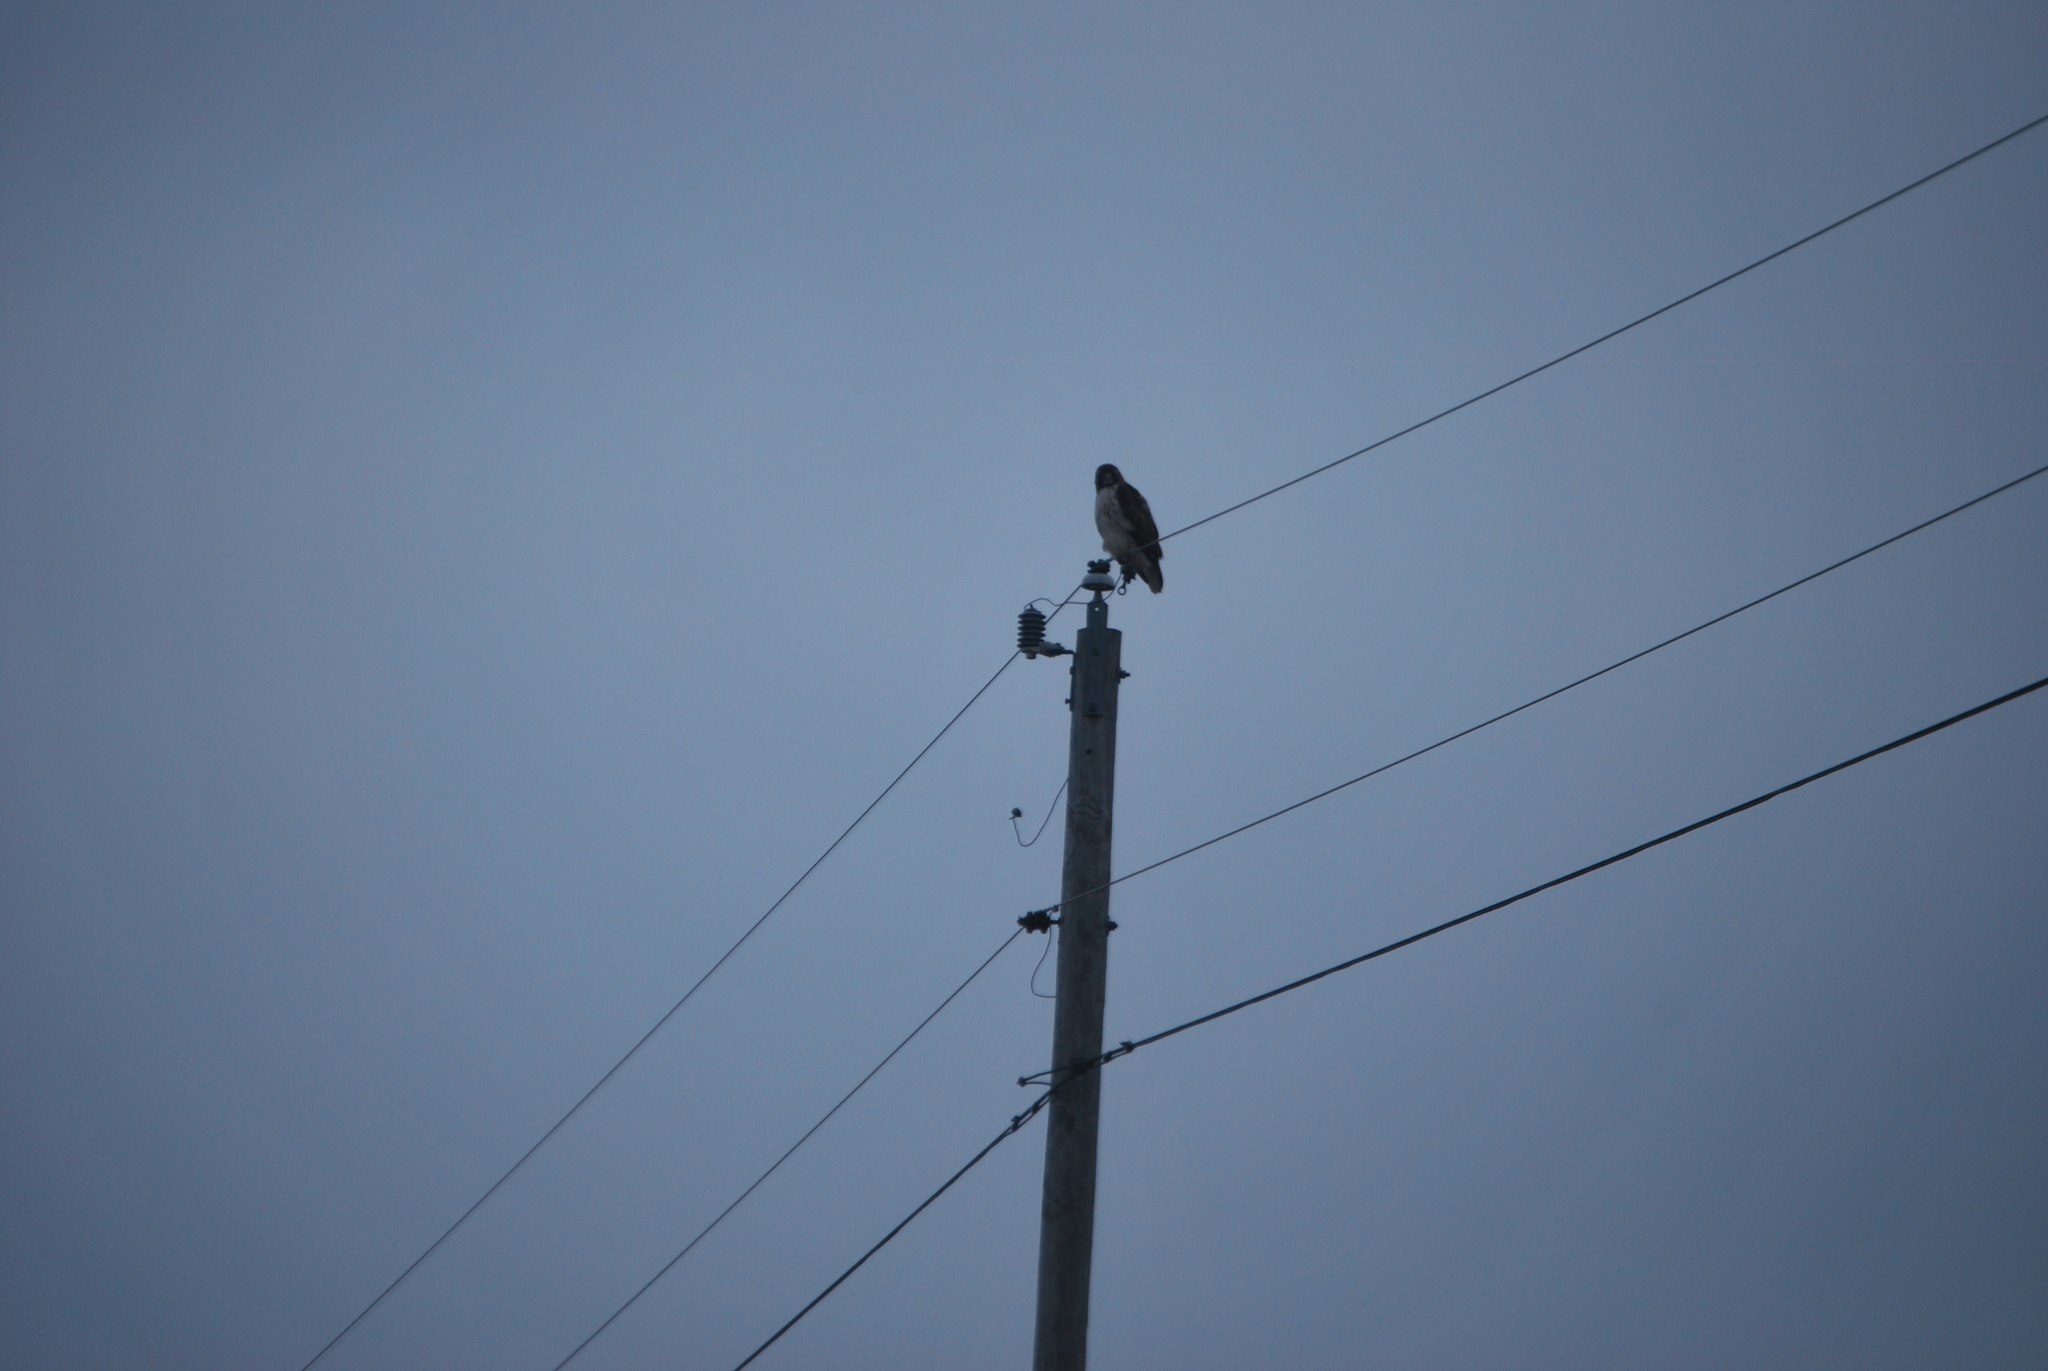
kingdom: Animalia
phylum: Chordata
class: Aves
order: Accipitriformes
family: Accipitridae
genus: Buteo
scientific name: Buteo jamaicensis
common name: Red-tailed hawk
